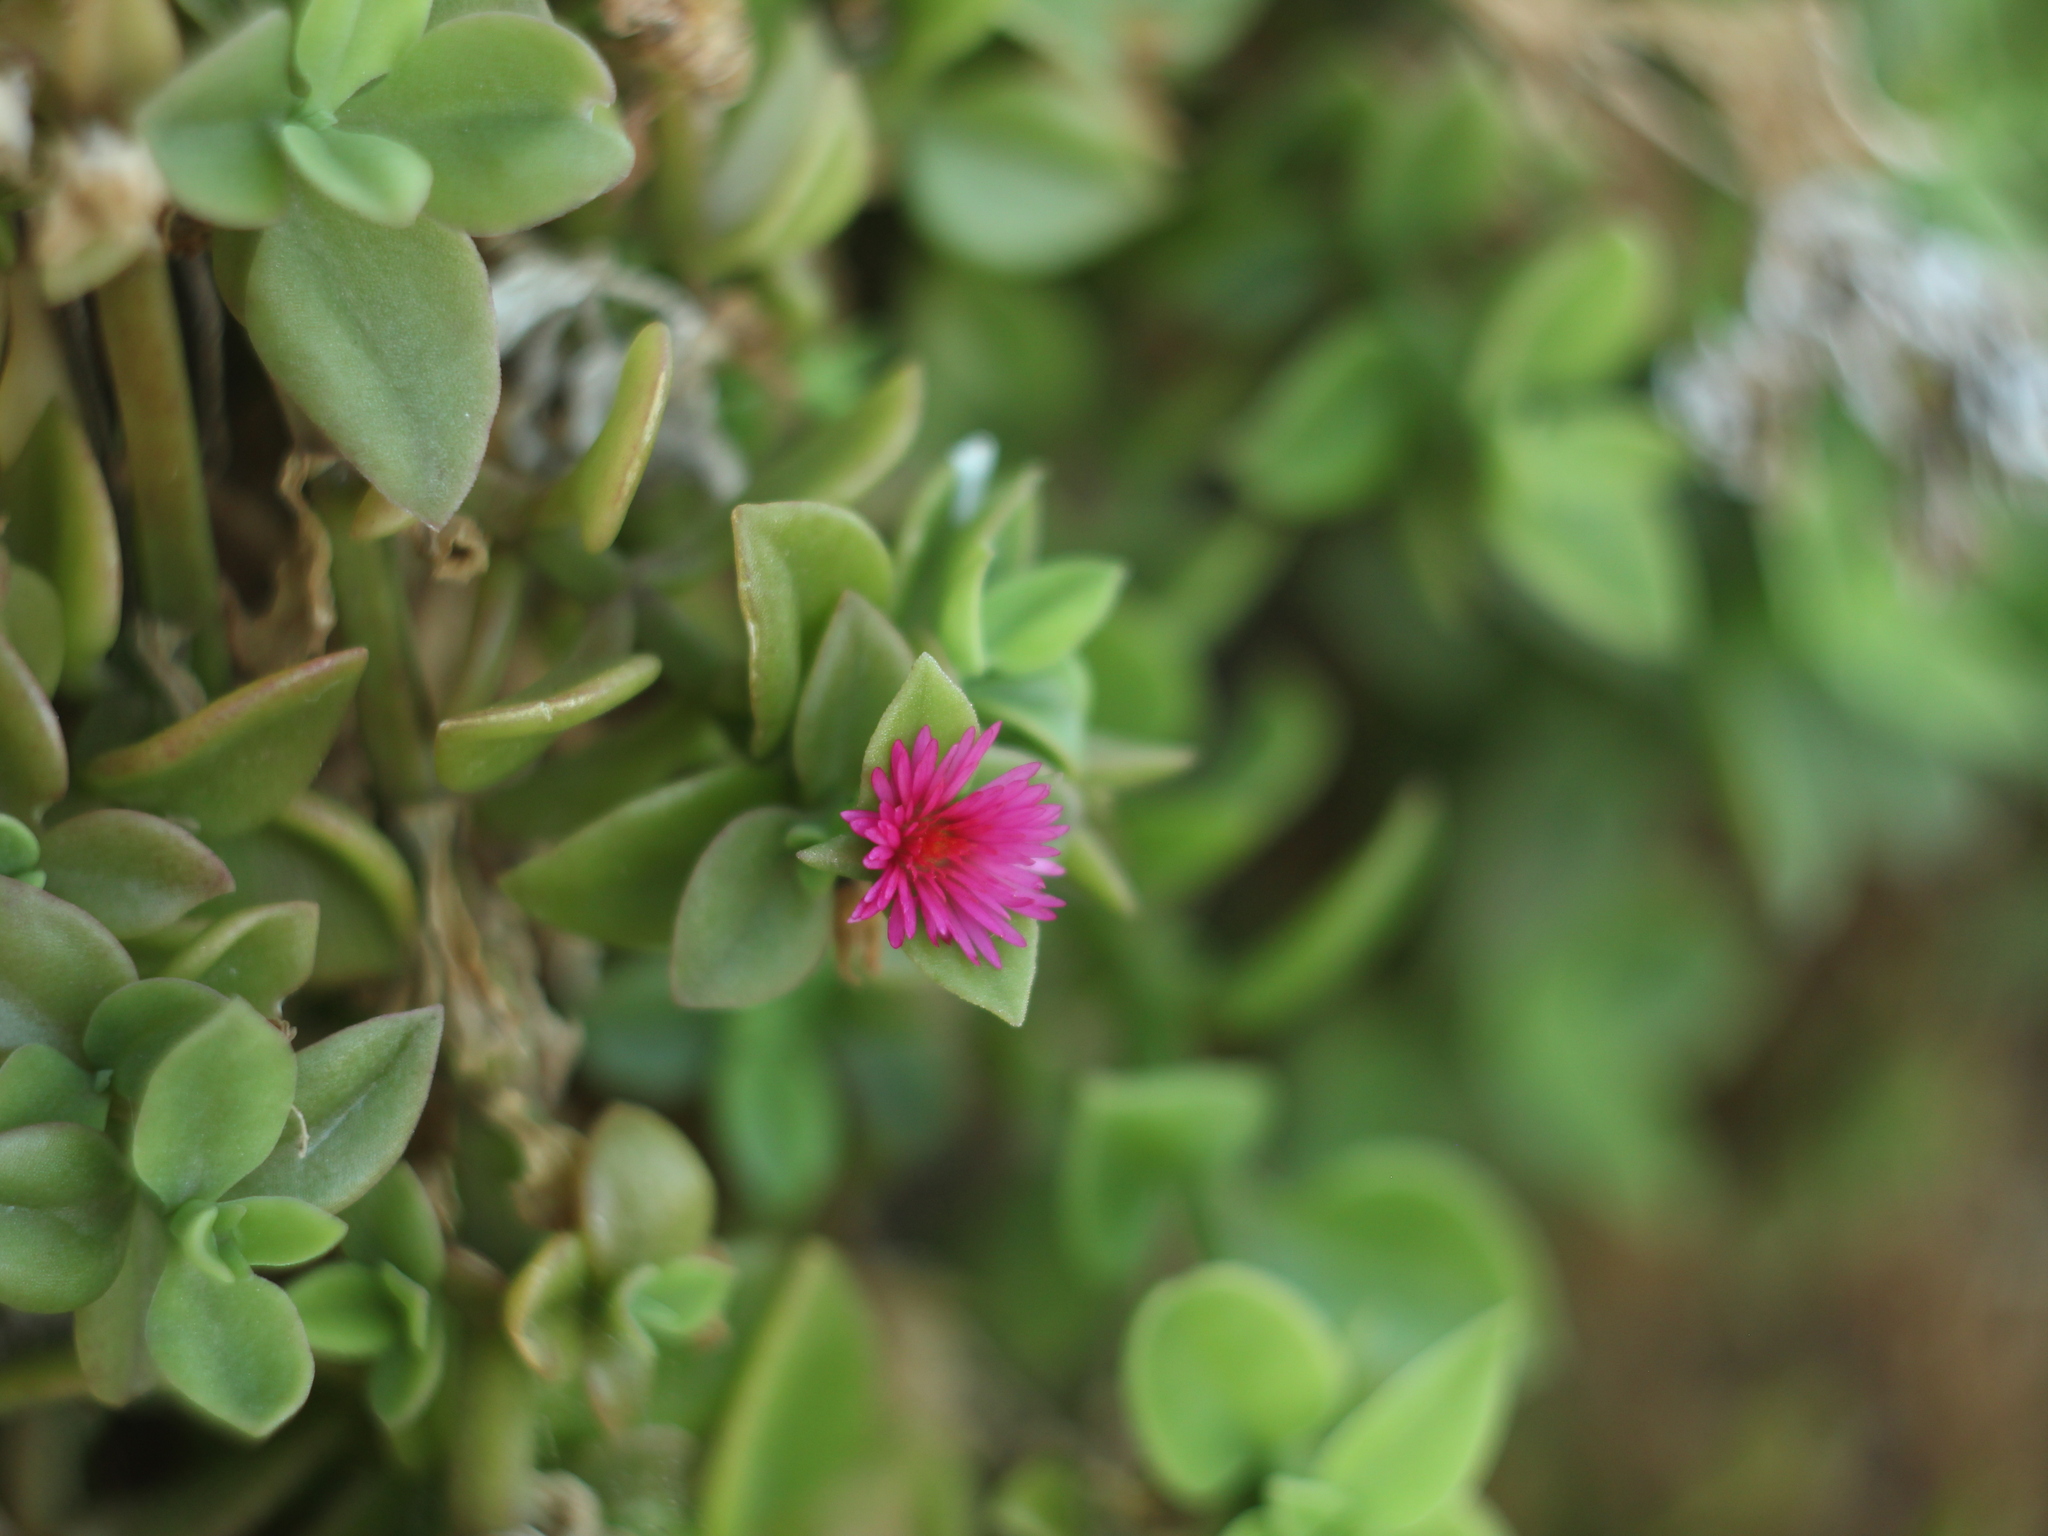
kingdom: Plantae
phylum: Tracheophyta
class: Magnoliopsida
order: Caryophyllales
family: Aizoaceae
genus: Mesembryanthemum
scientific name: Mesembryanthemum cordifolium
